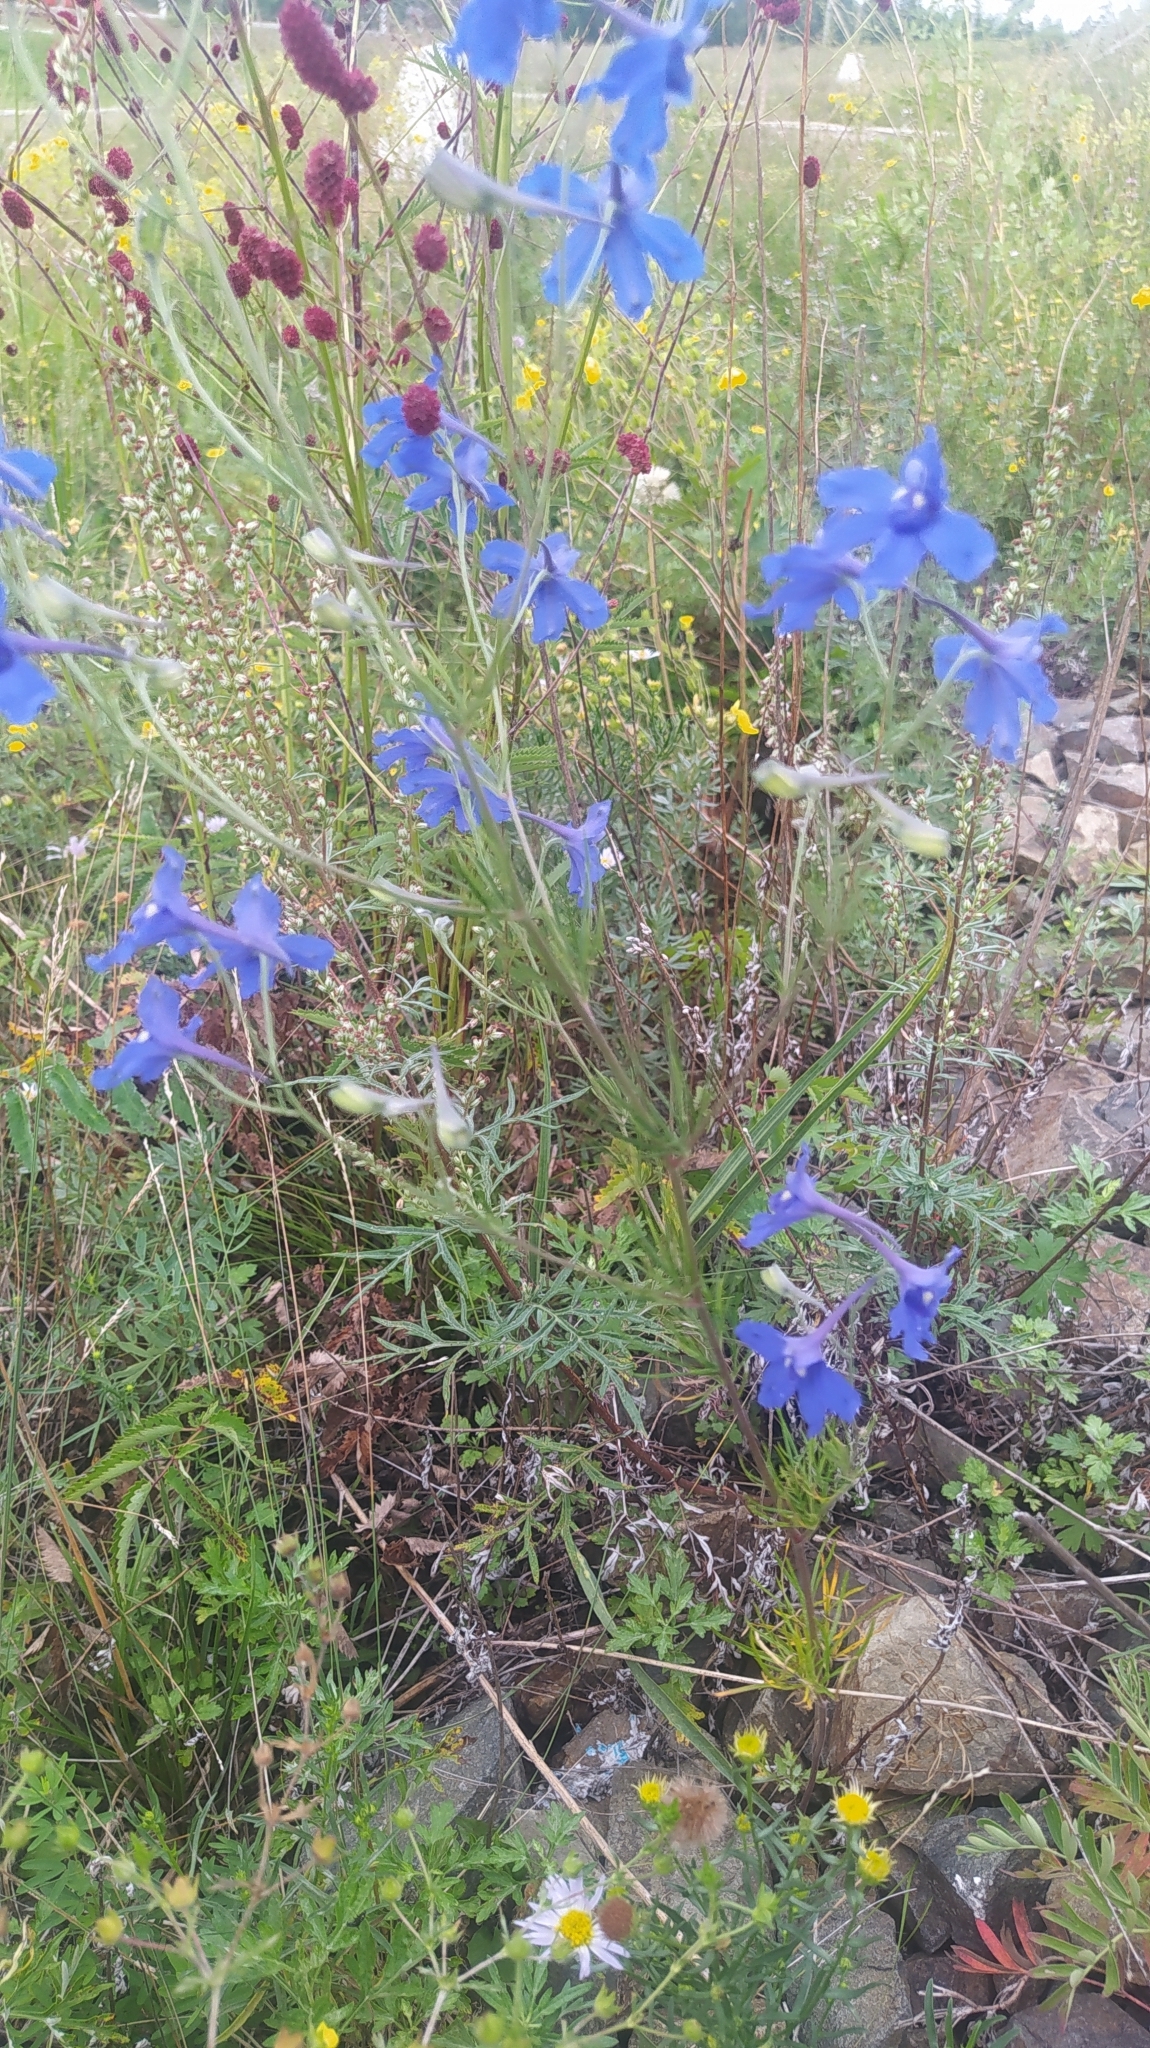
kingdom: Plantae
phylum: Tracheophyta
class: Magnoliopsida
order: Ranunculales
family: Ranunculaceae
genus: Delphinium
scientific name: Delphinium grandiflorum
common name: Siberian larkspur
